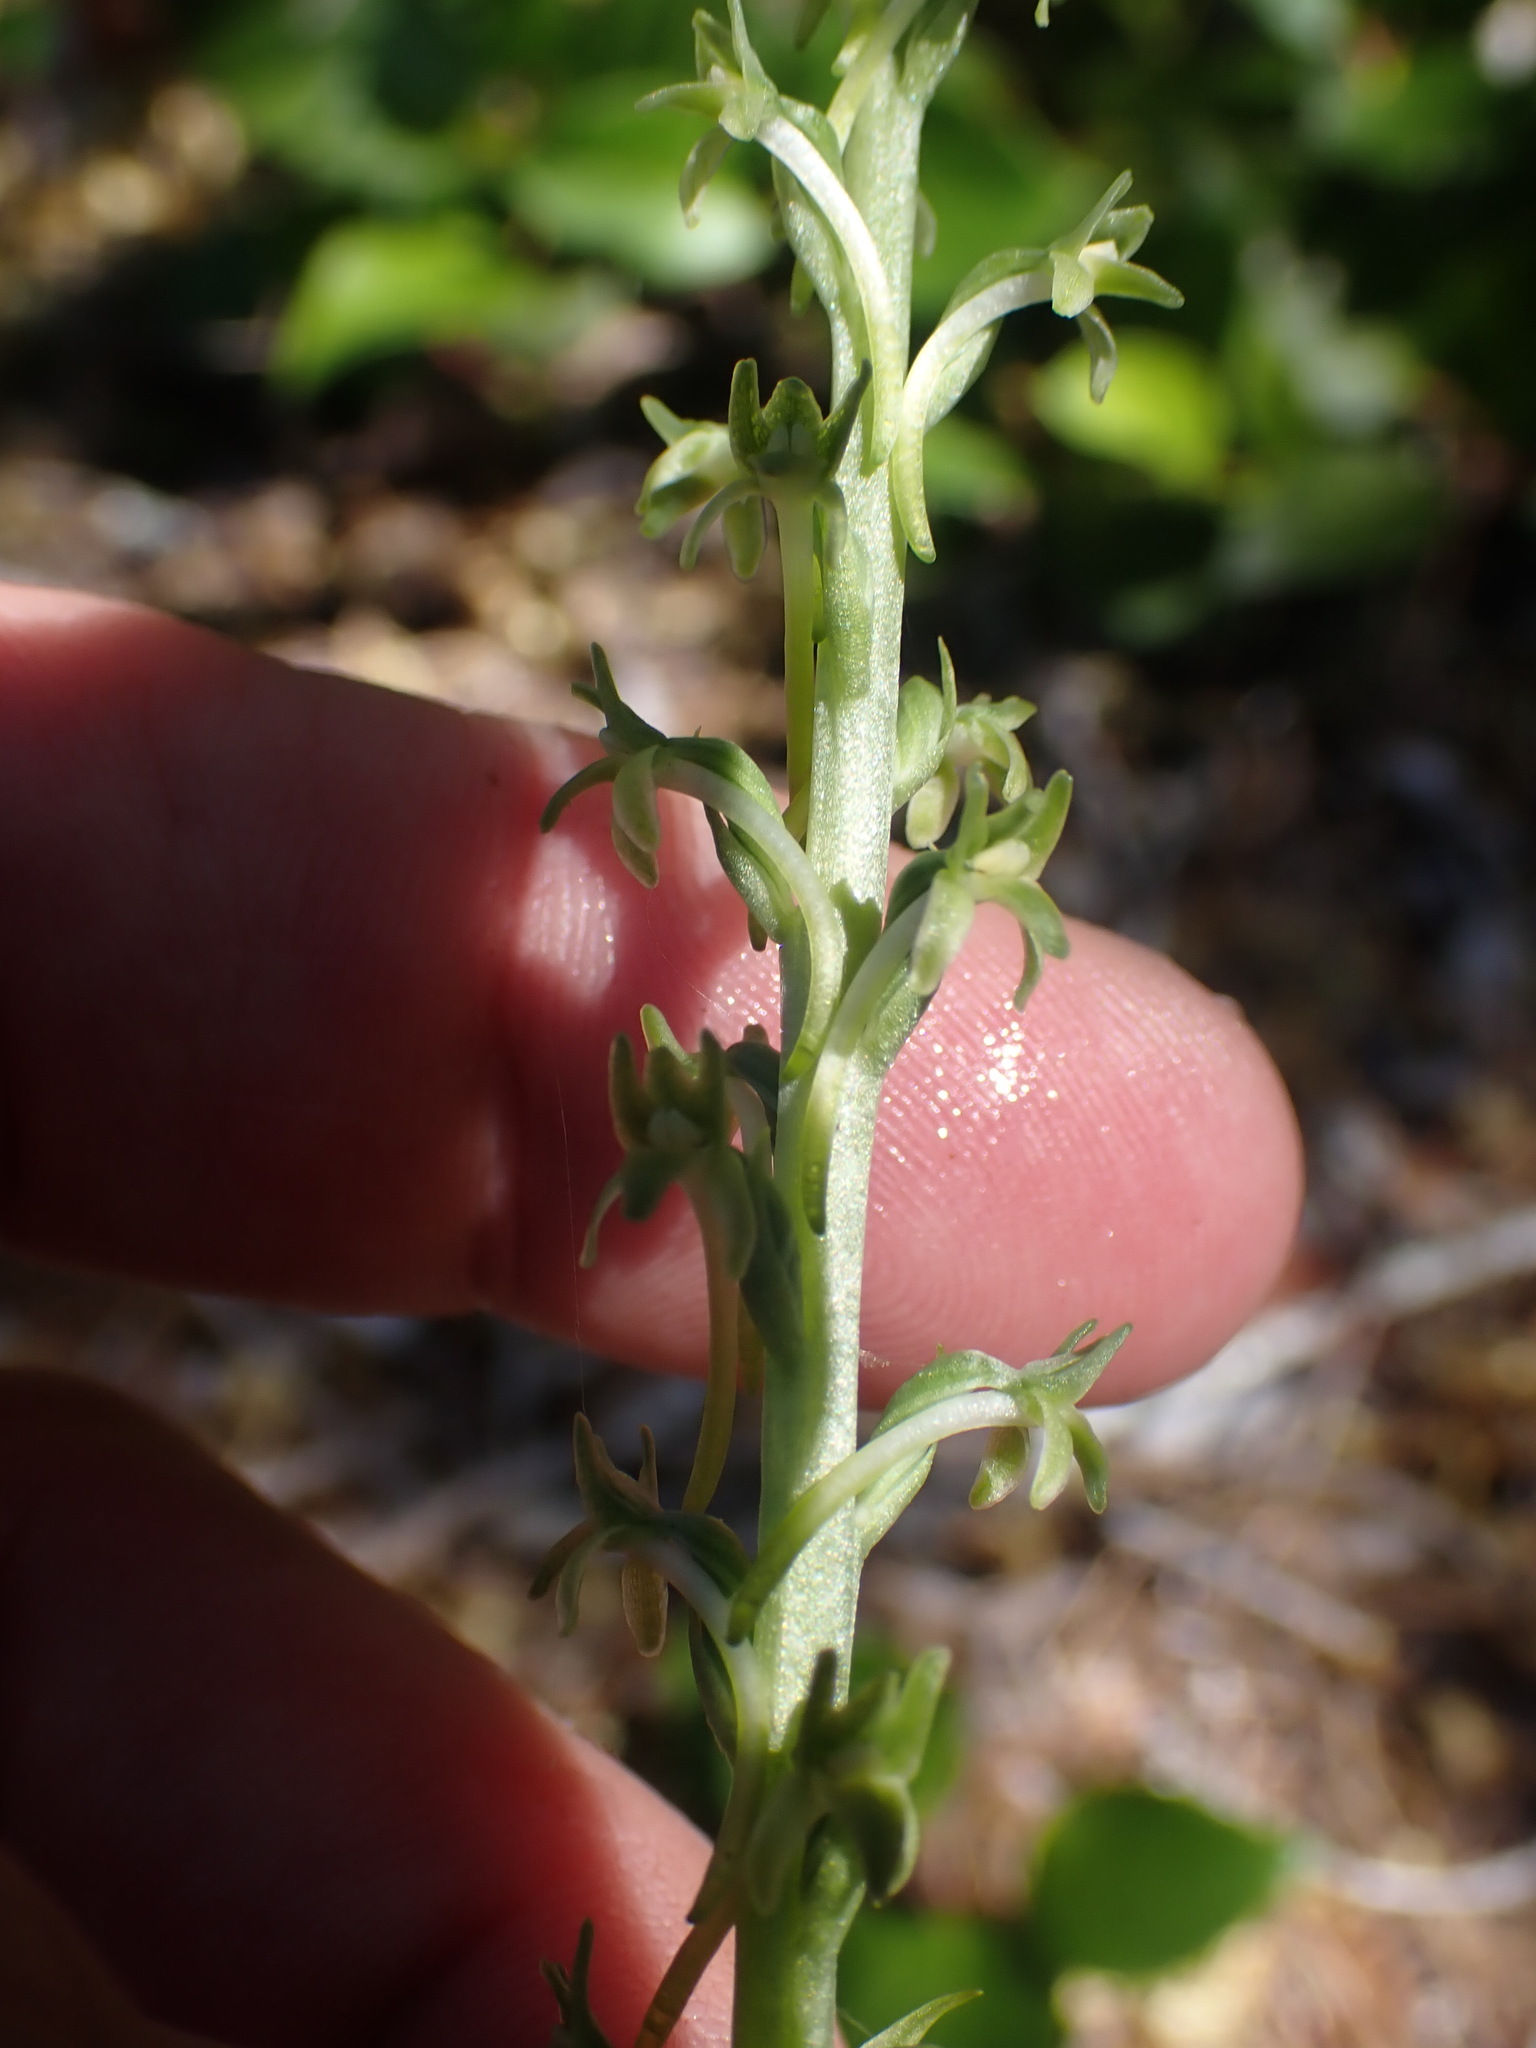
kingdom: Plantae
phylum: Tracheophyta
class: Liliopsida
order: Asparagales
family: Orchidaceae
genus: Platanthera
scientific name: Platanthera elongata
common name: Dense-flowered rein orchid
